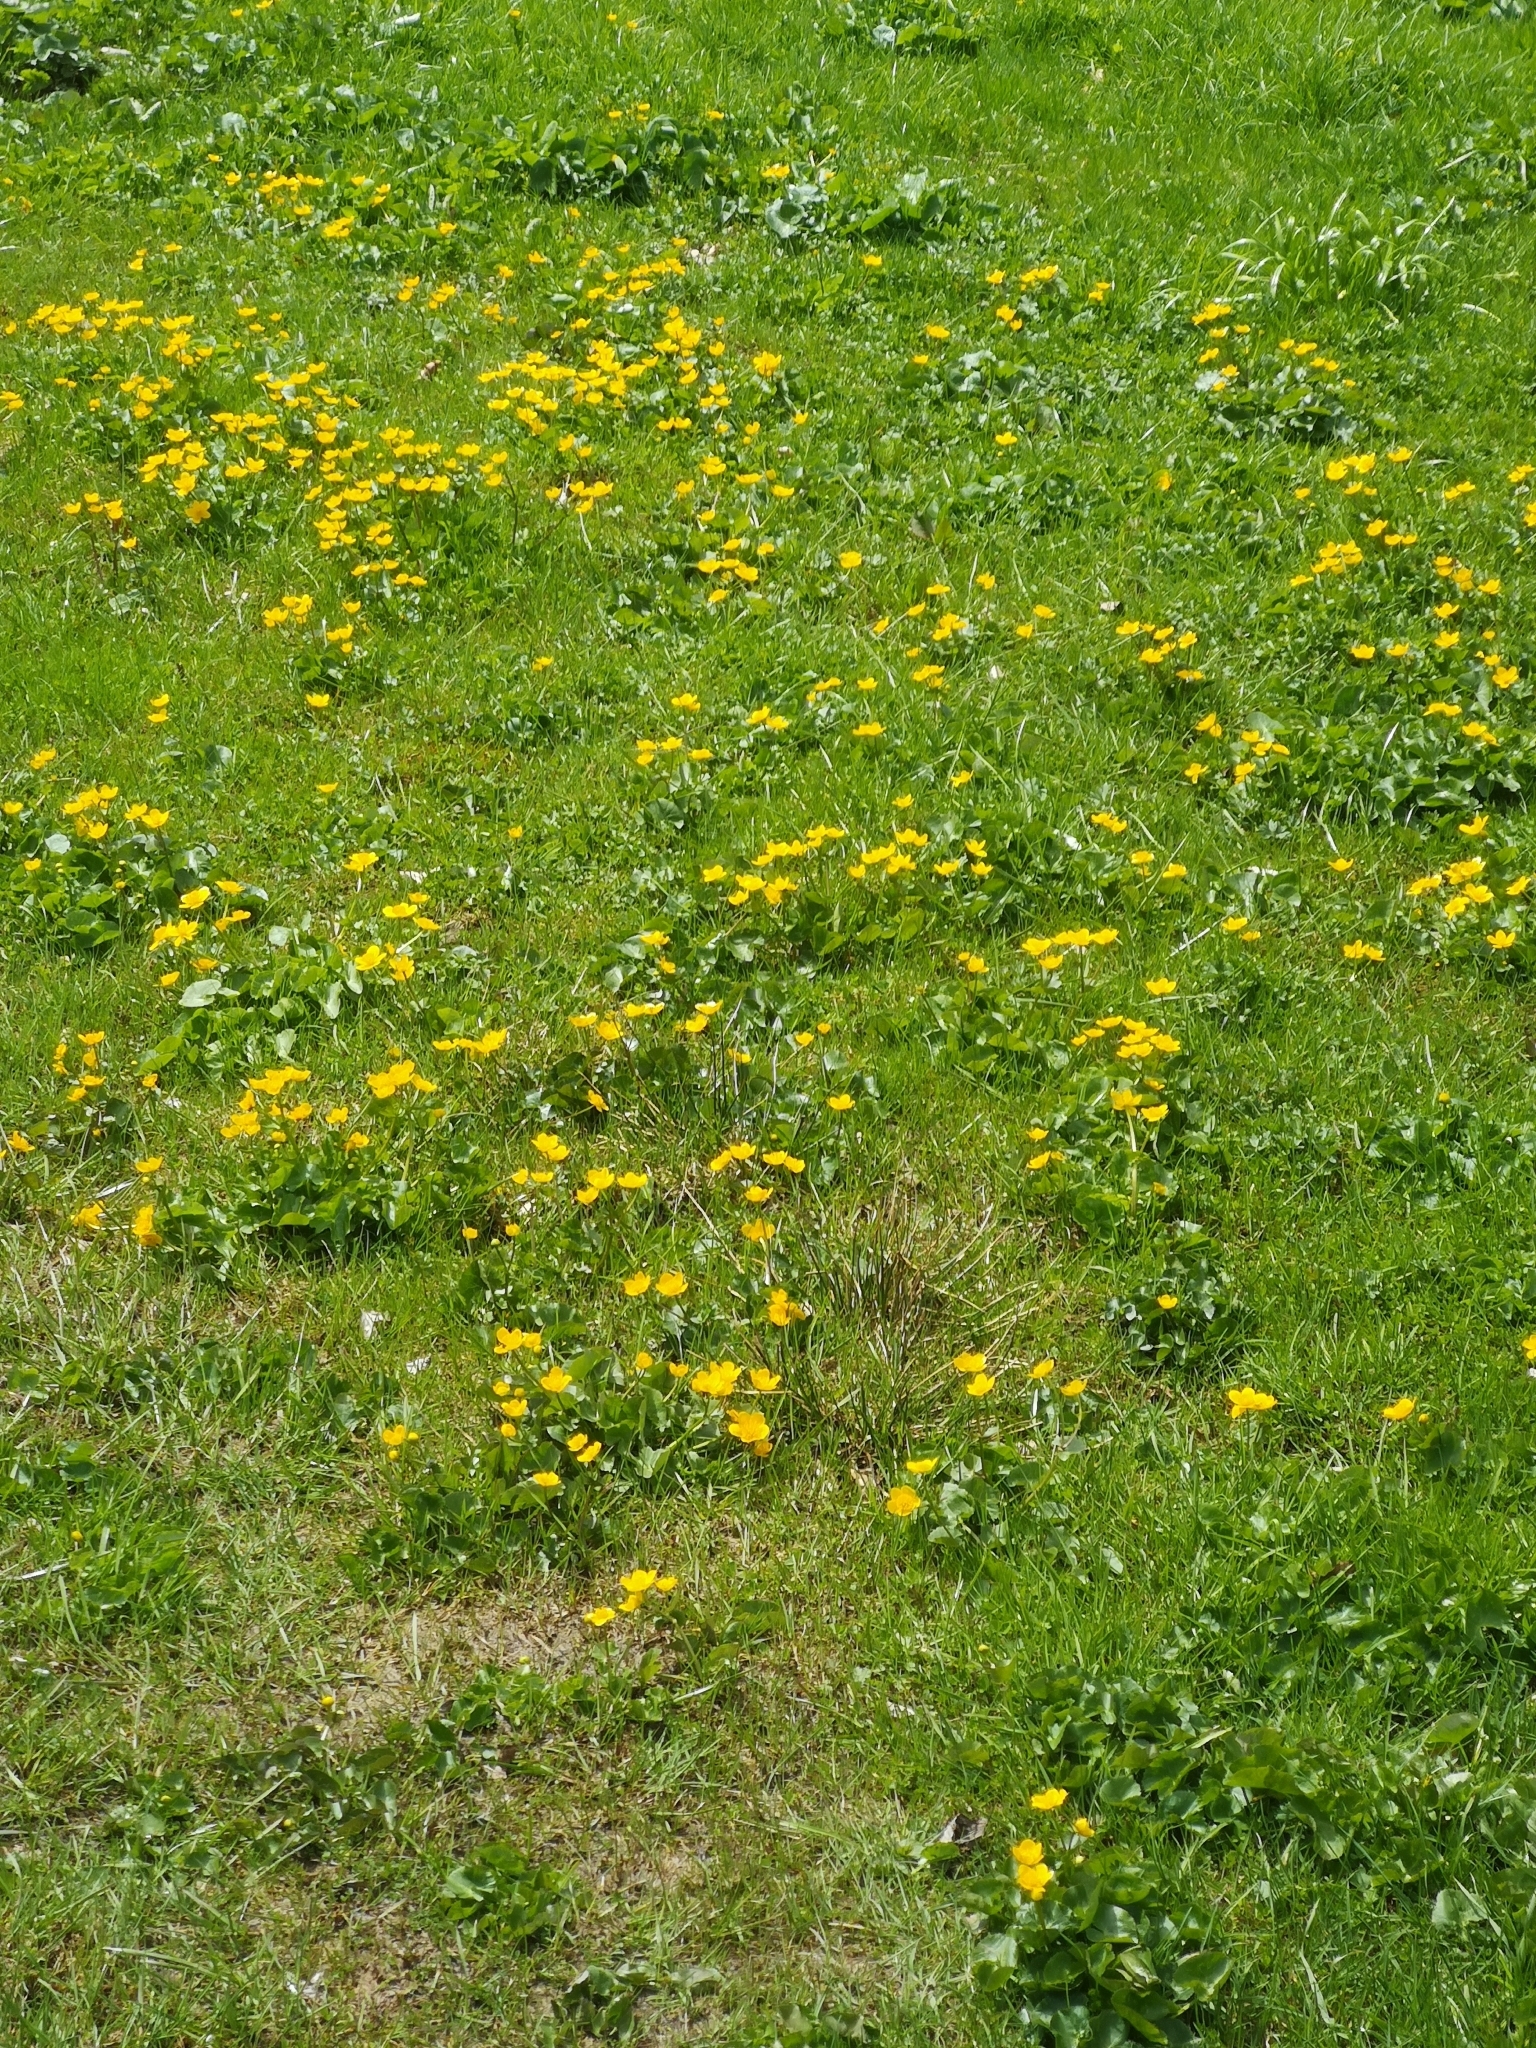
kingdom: Plantae
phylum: Tracheophyta
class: Magnoliopsida
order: Ranunculales
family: Ranunculaceae
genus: Caltha
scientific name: Caltha palustris
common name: Marsh marigold
